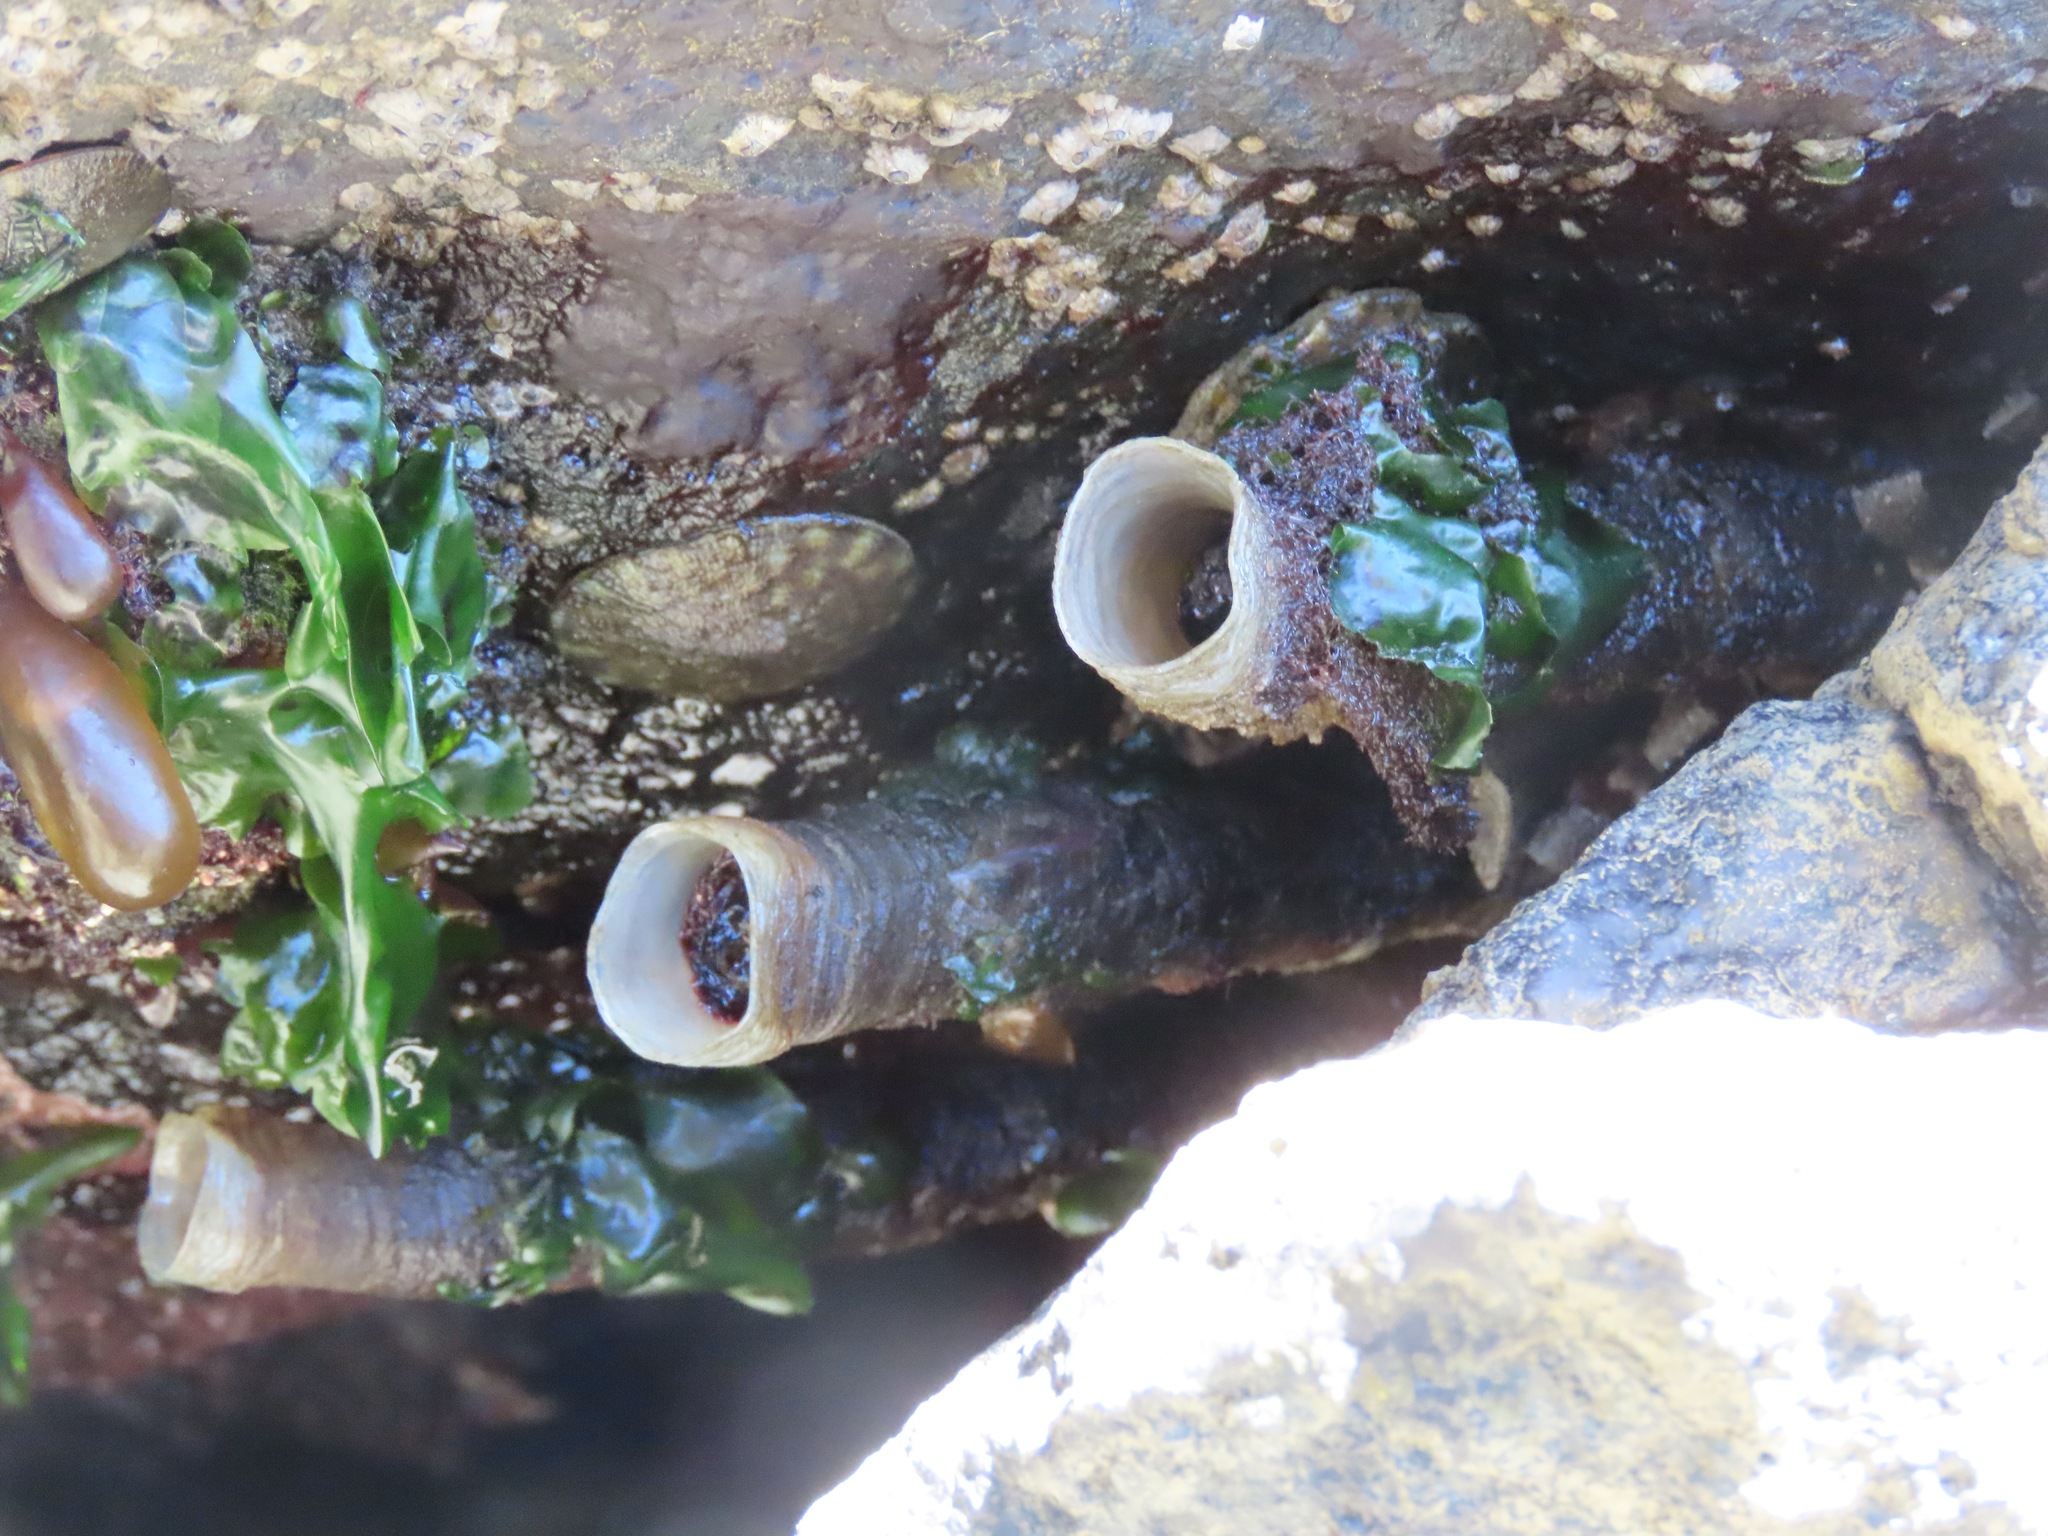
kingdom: Animalia
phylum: Annelida
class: Polychaeta
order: Sabellida
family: Sabellidae
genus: Eudistylia
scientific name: Eudistylia vancouveri
